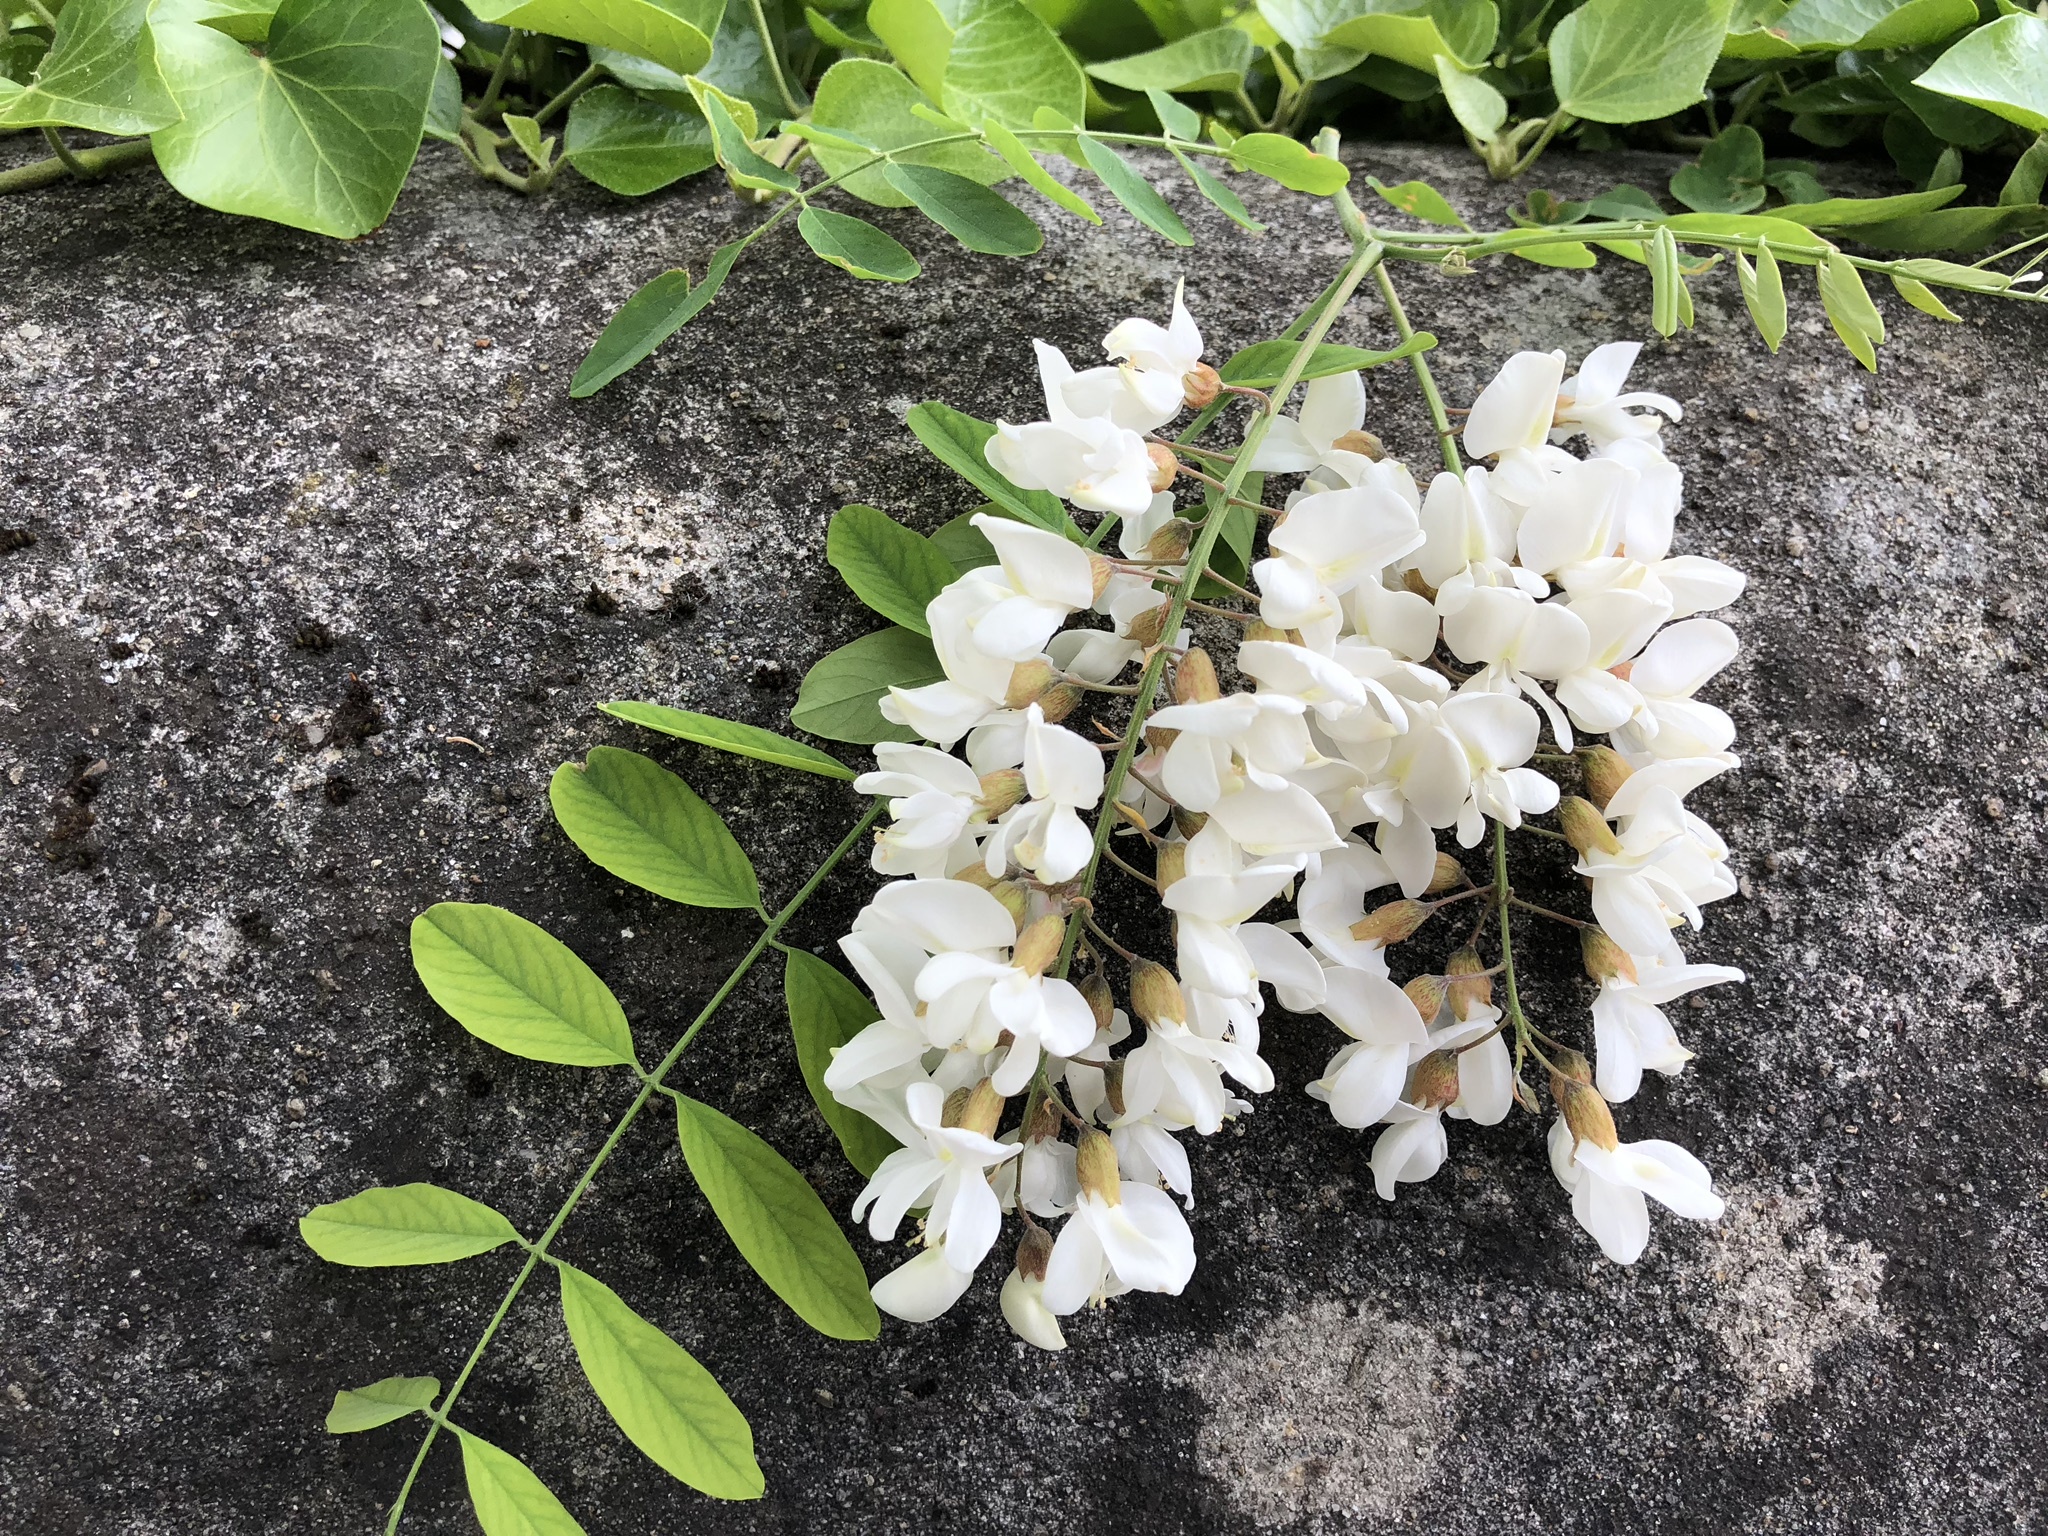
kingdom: Plantae
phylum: Tracheophyta
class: Magnoliopsida
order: Fabales
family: Fabaceae
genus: Robinia
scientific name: Robinia pseudoacacia
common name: Black locust
